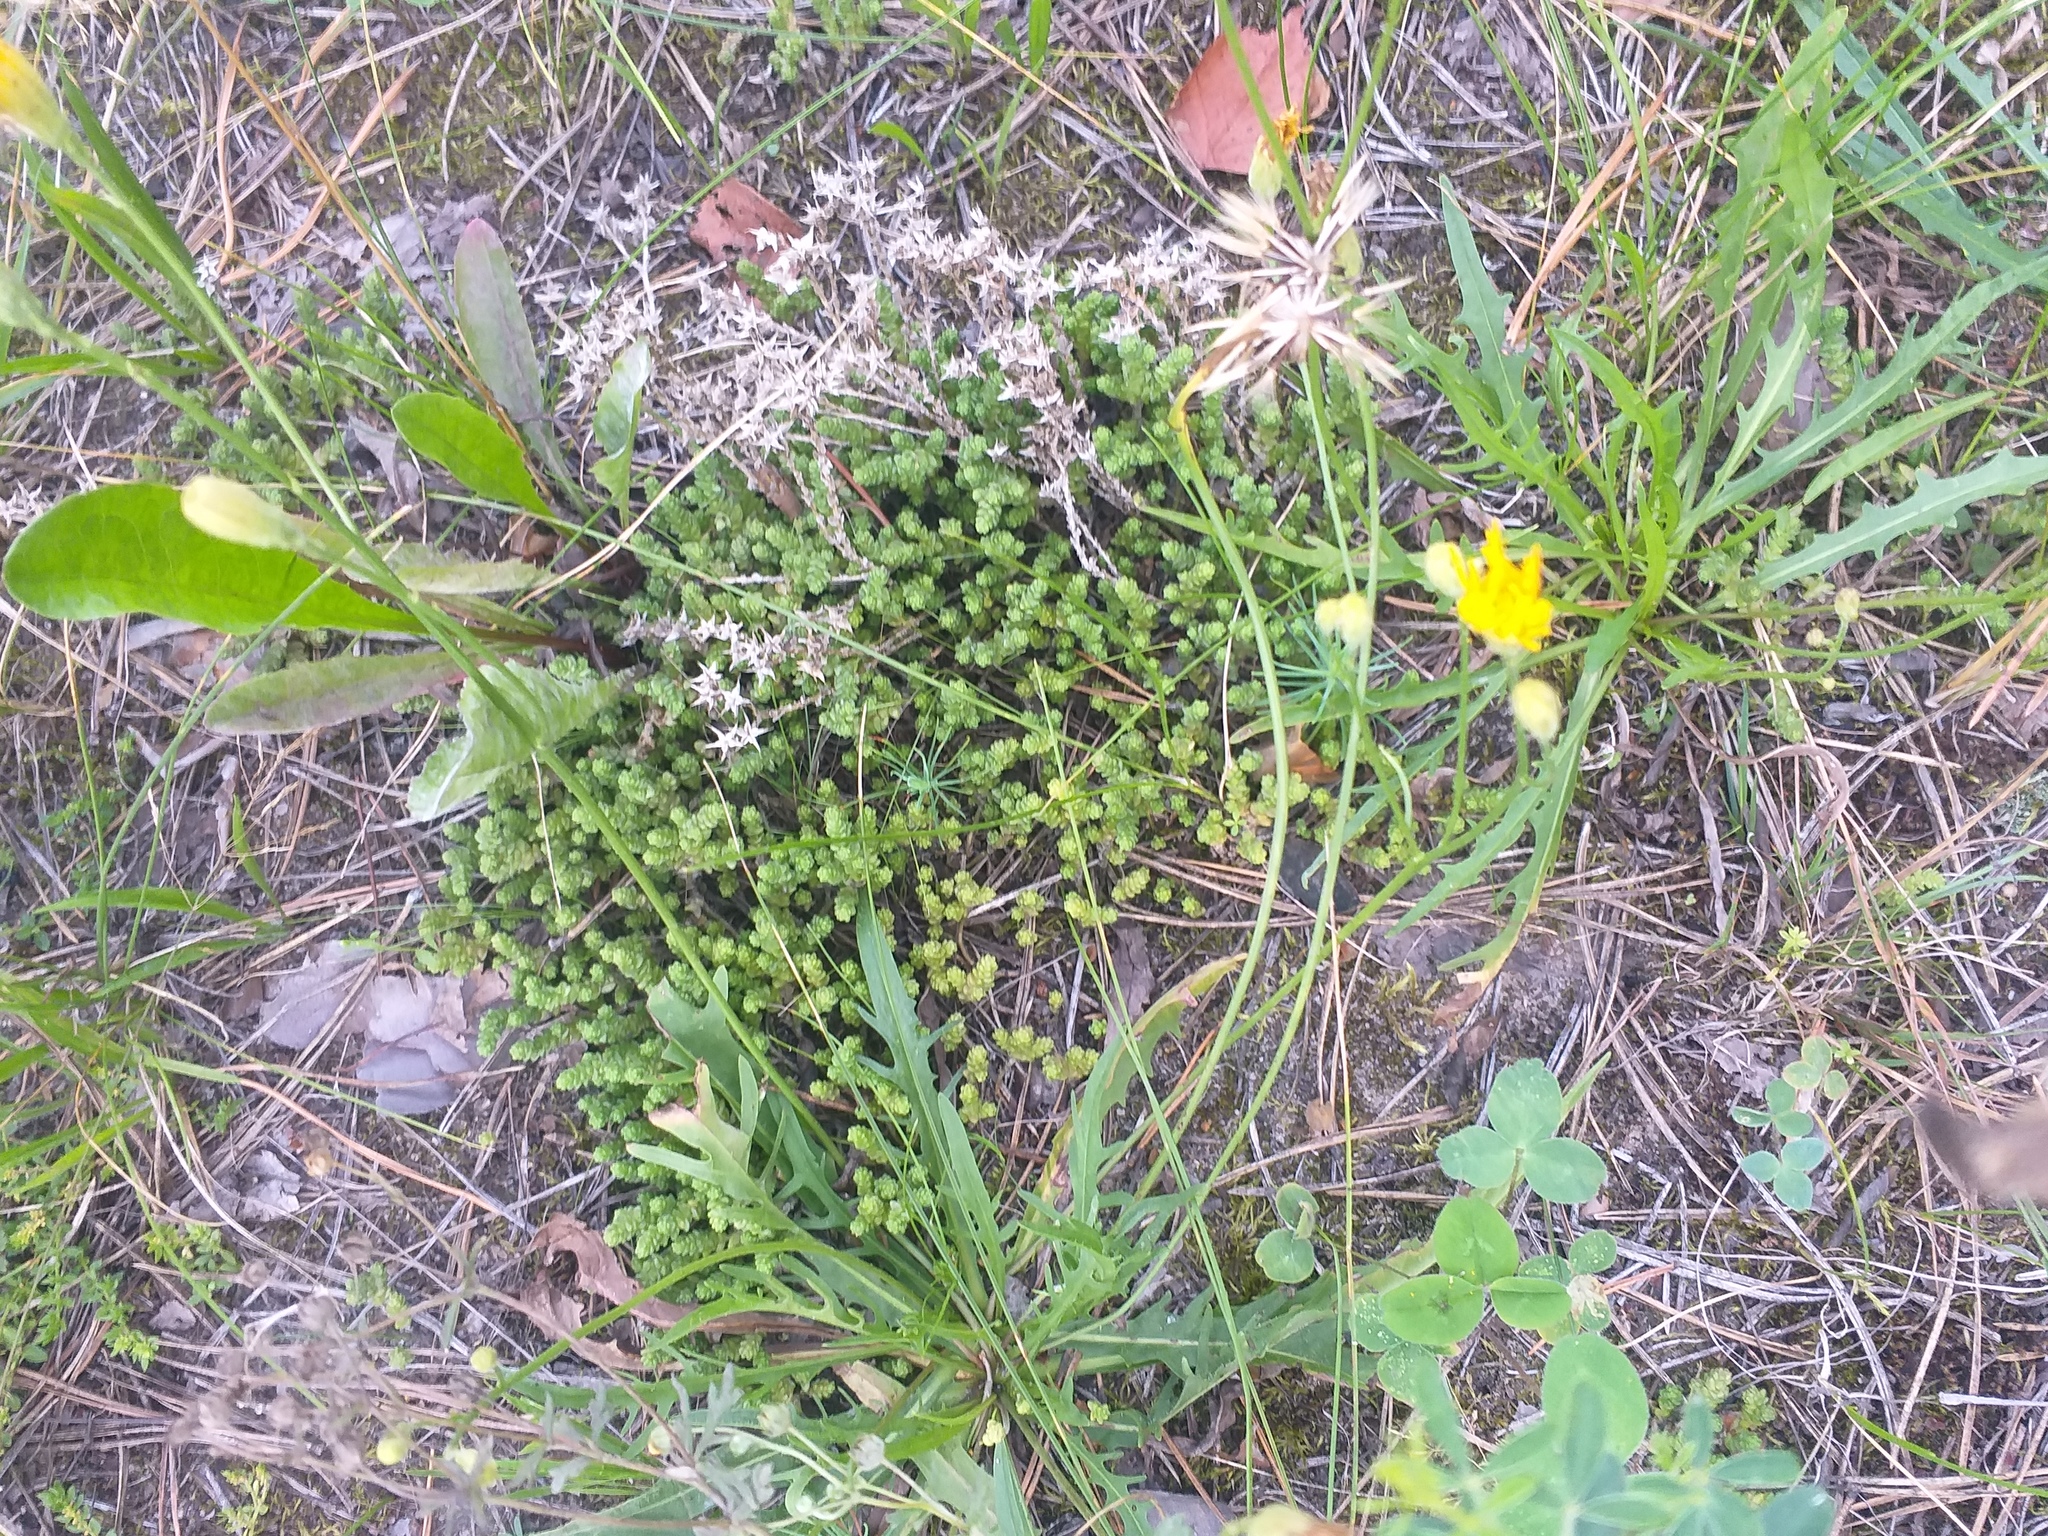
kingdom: Plantae
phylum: Tracheophyta
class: Magnoliopsida
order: Saxifragales
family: Crassulaceae
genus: Sedum
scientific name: Sedum acre
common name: Biting stonecrop
